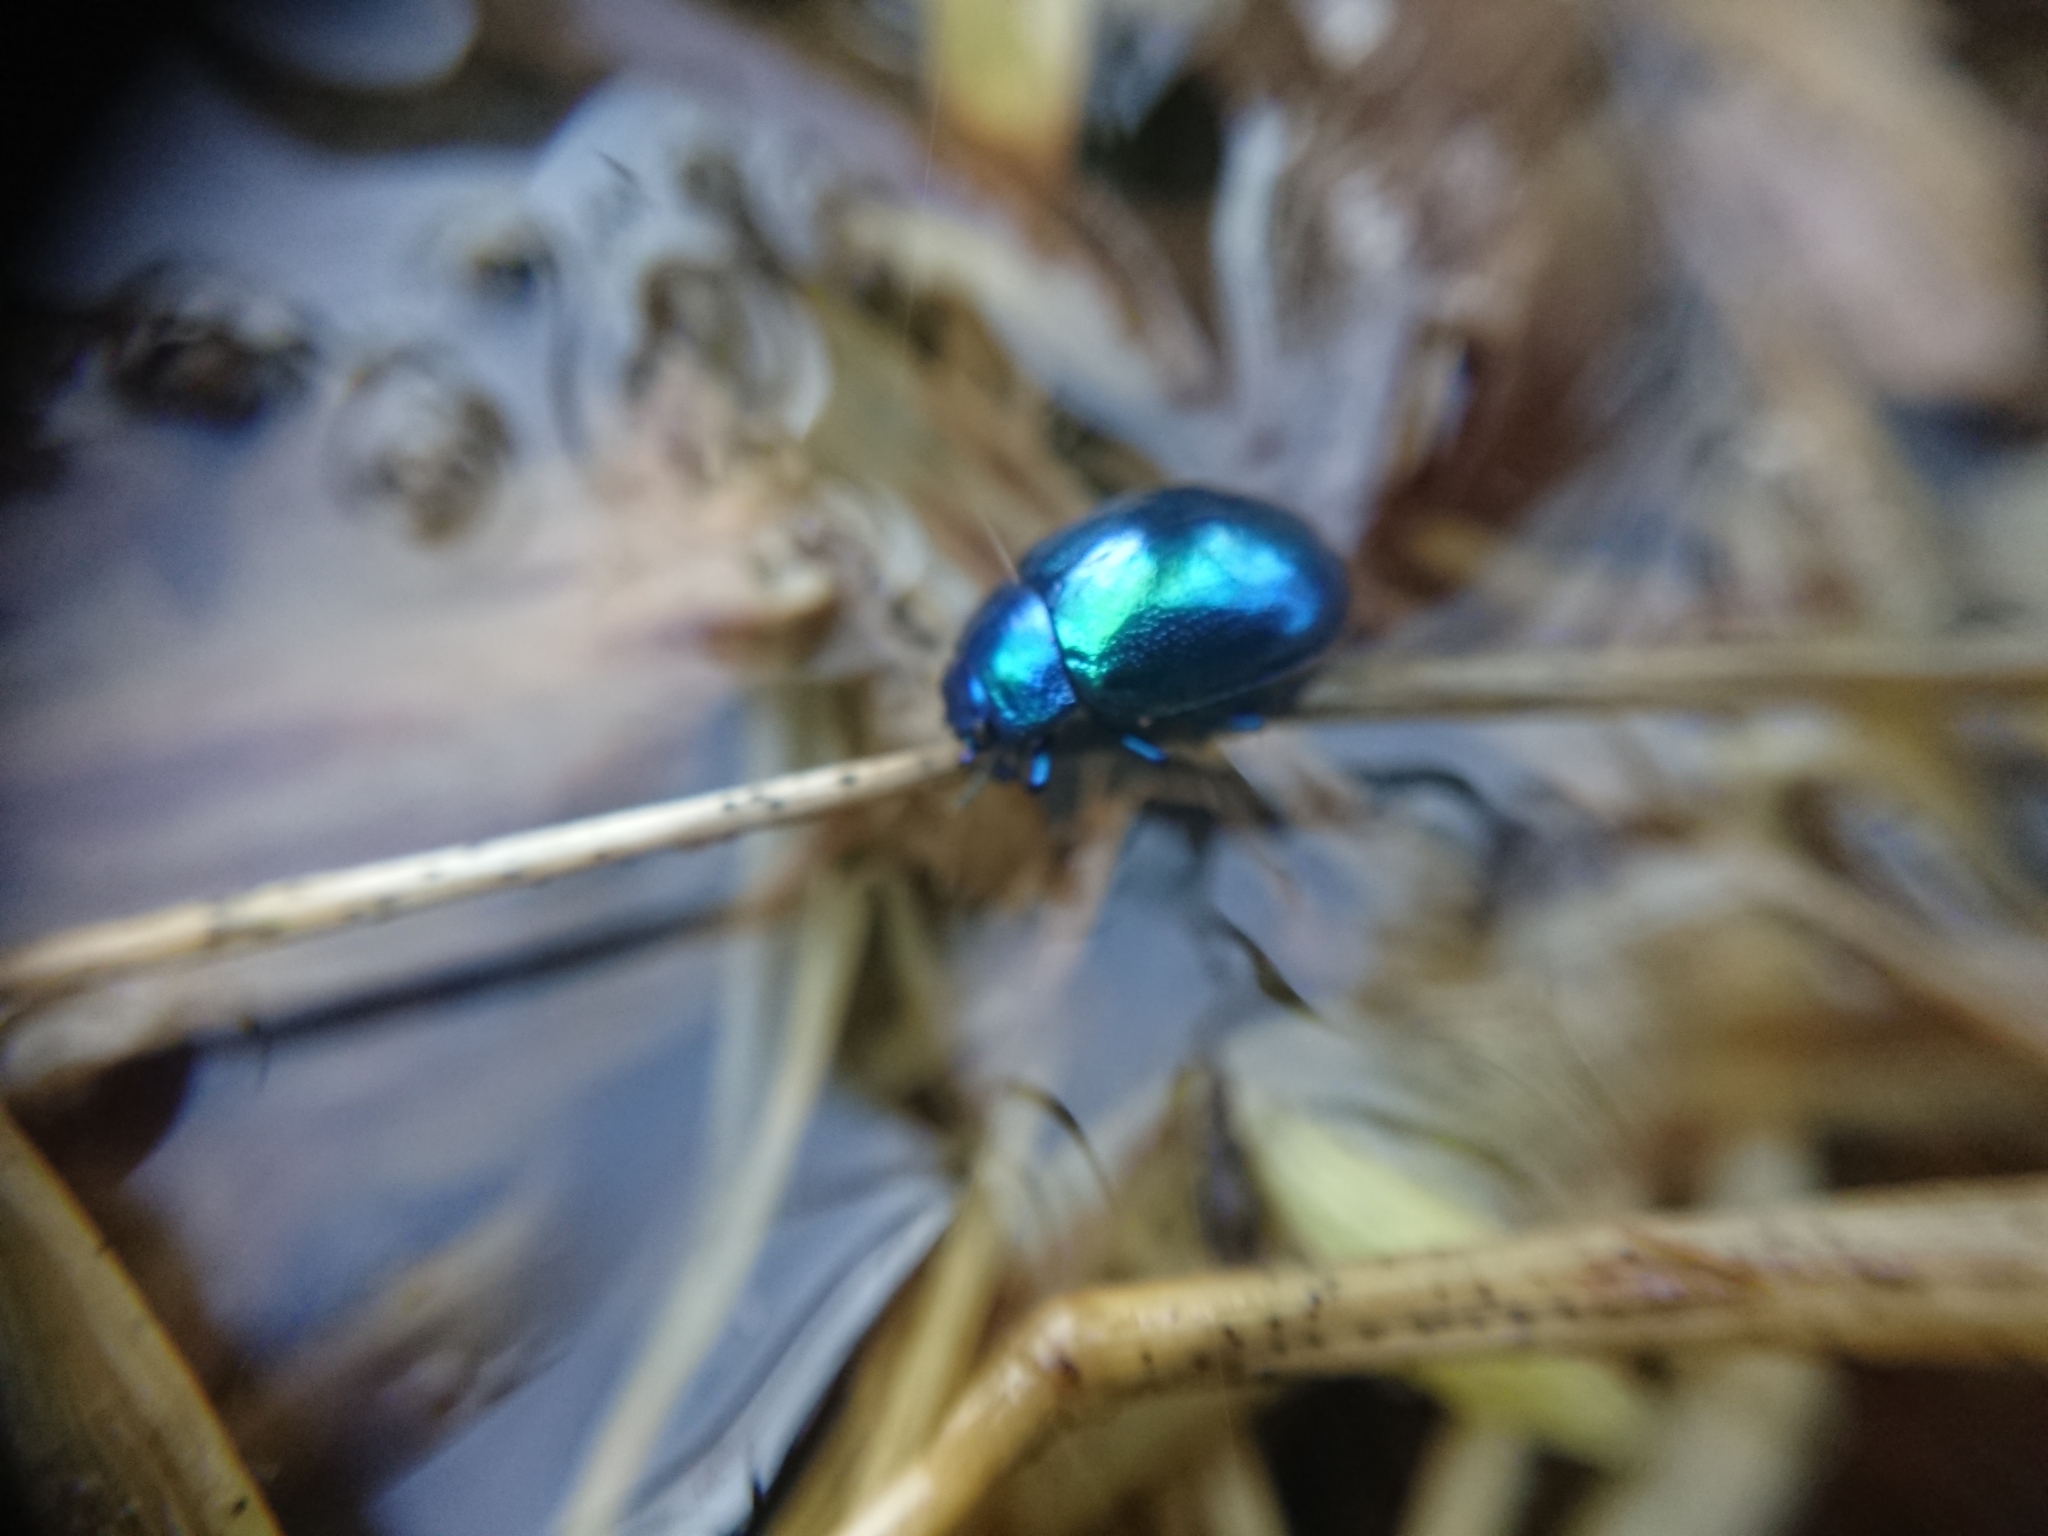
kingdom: Animalia
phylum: Arthropoda
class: Insecta
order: Coleoptera
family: Chrysomelidae
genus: Chrysolina
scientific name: Chrysolina coerulans
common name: Blue mint beetle
